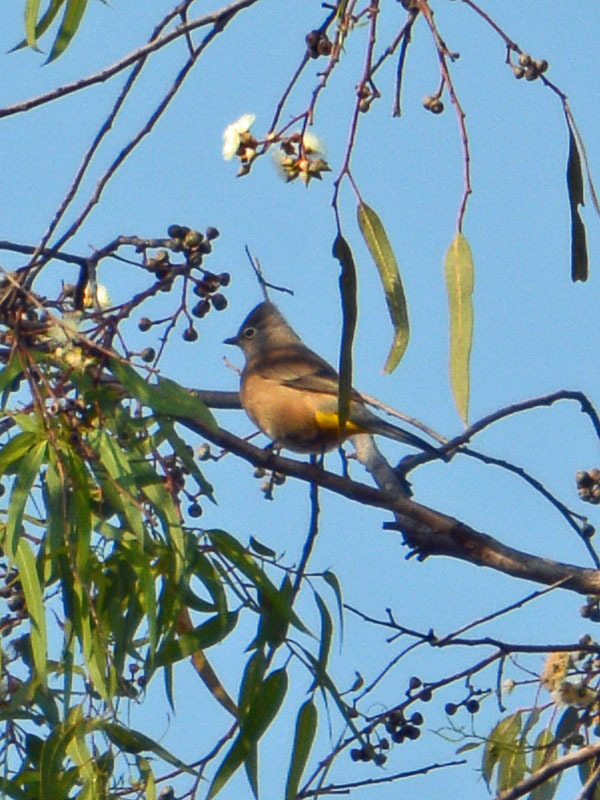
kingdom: Animalia
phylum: Chordata
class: Aves
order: Passeriformes
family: Ptilogonatidae
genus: Ptilogonys
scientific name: Ptilogonys cinereus
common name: Gray silky-flycatcher
